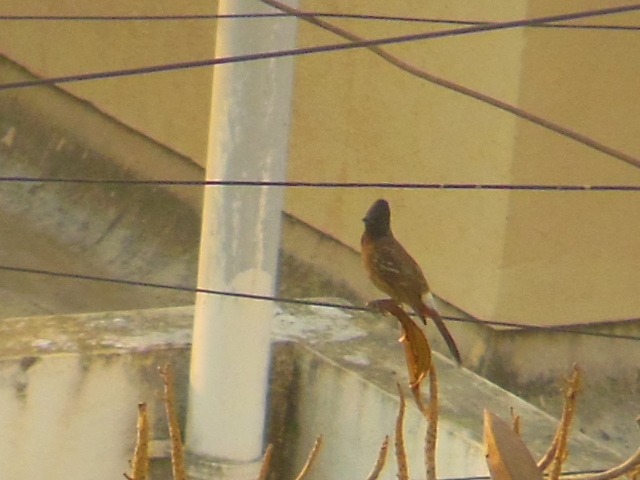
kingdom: Animalia
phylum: Chordata
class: Aves
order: Passeriformes
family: Pycnonotidae
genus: Pycnonotus
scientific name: Pycnonotus cafer
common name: Red-vented bulbul
